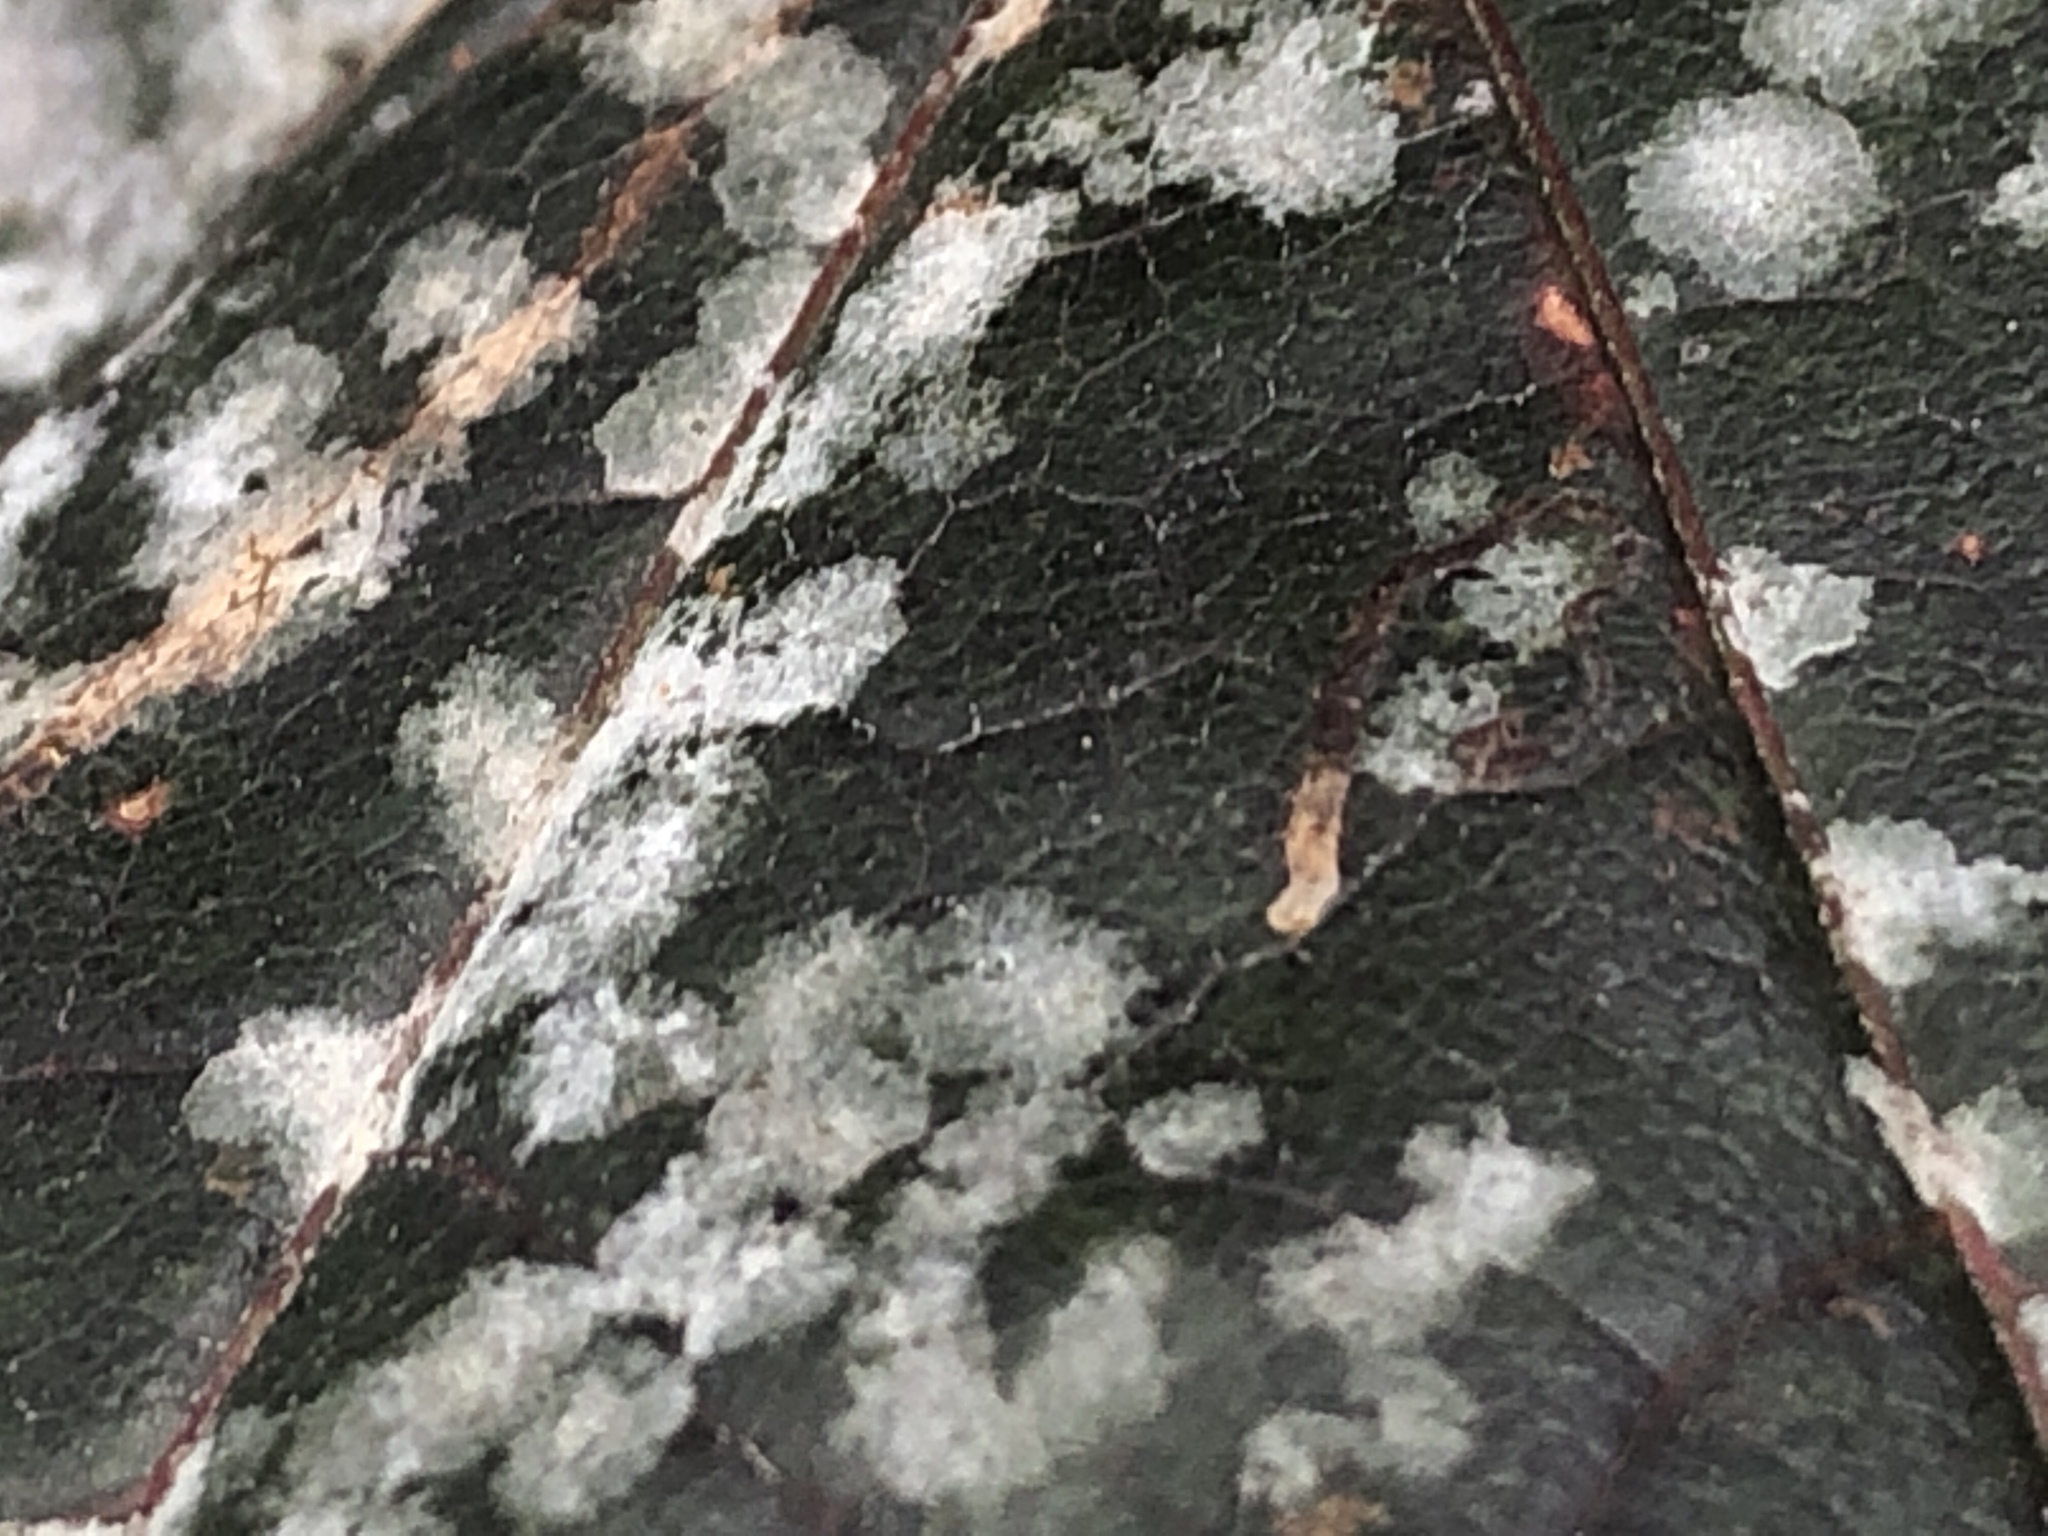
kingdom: Fungi
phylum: Ascomycota
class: Leotiomycetes
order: Helotiales
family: Erysiphaceae
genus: Sawadaea
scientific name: Sawadaea tulasnei
